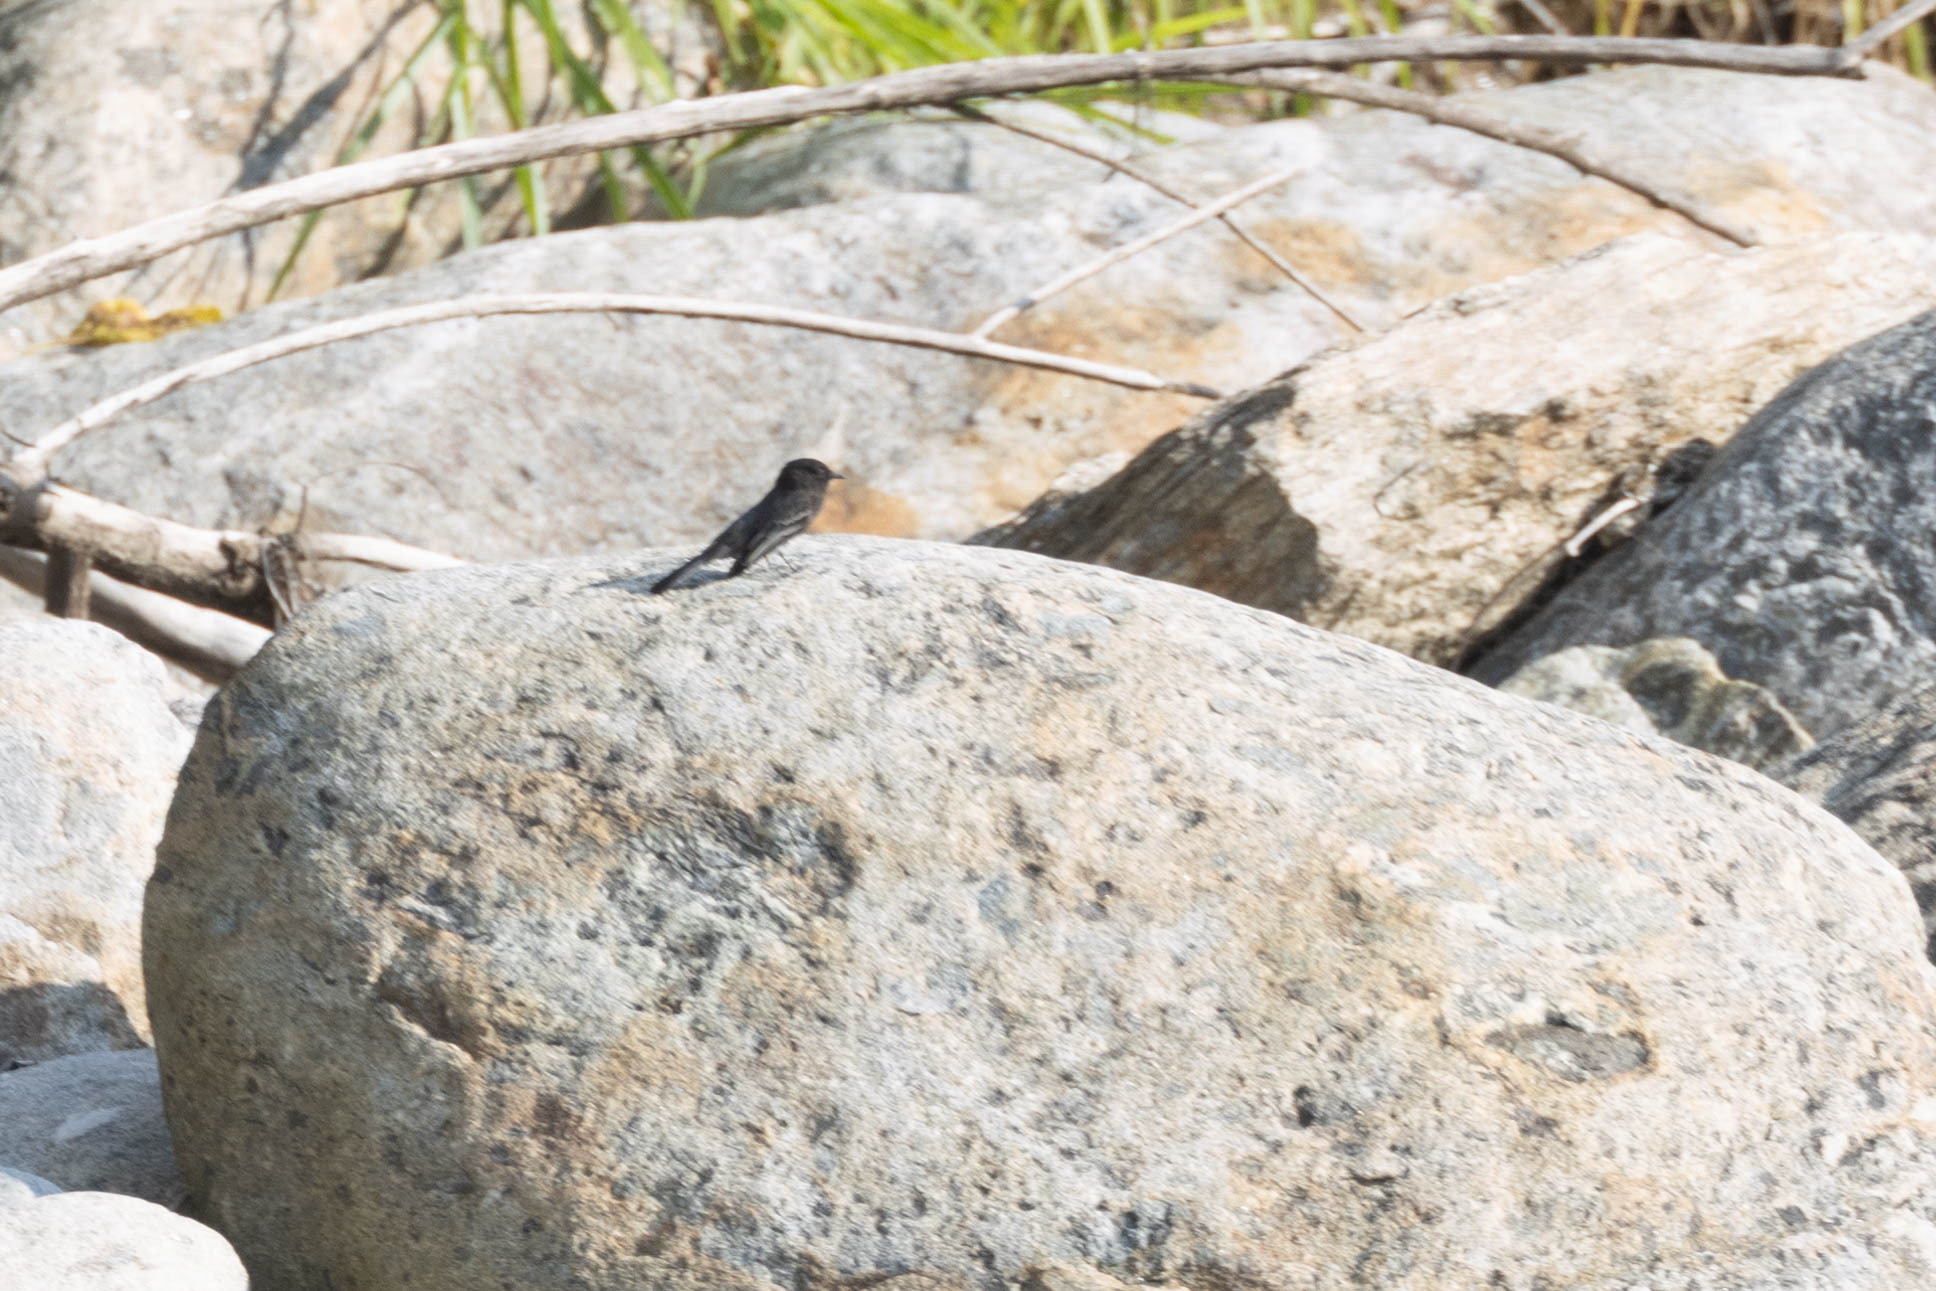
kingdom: Animalia
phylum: Chordata
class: Aves
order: Passeriformes
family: Tyrannidae
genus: Sayornis
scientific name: Sayornis nigricans
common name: Black phoebe
